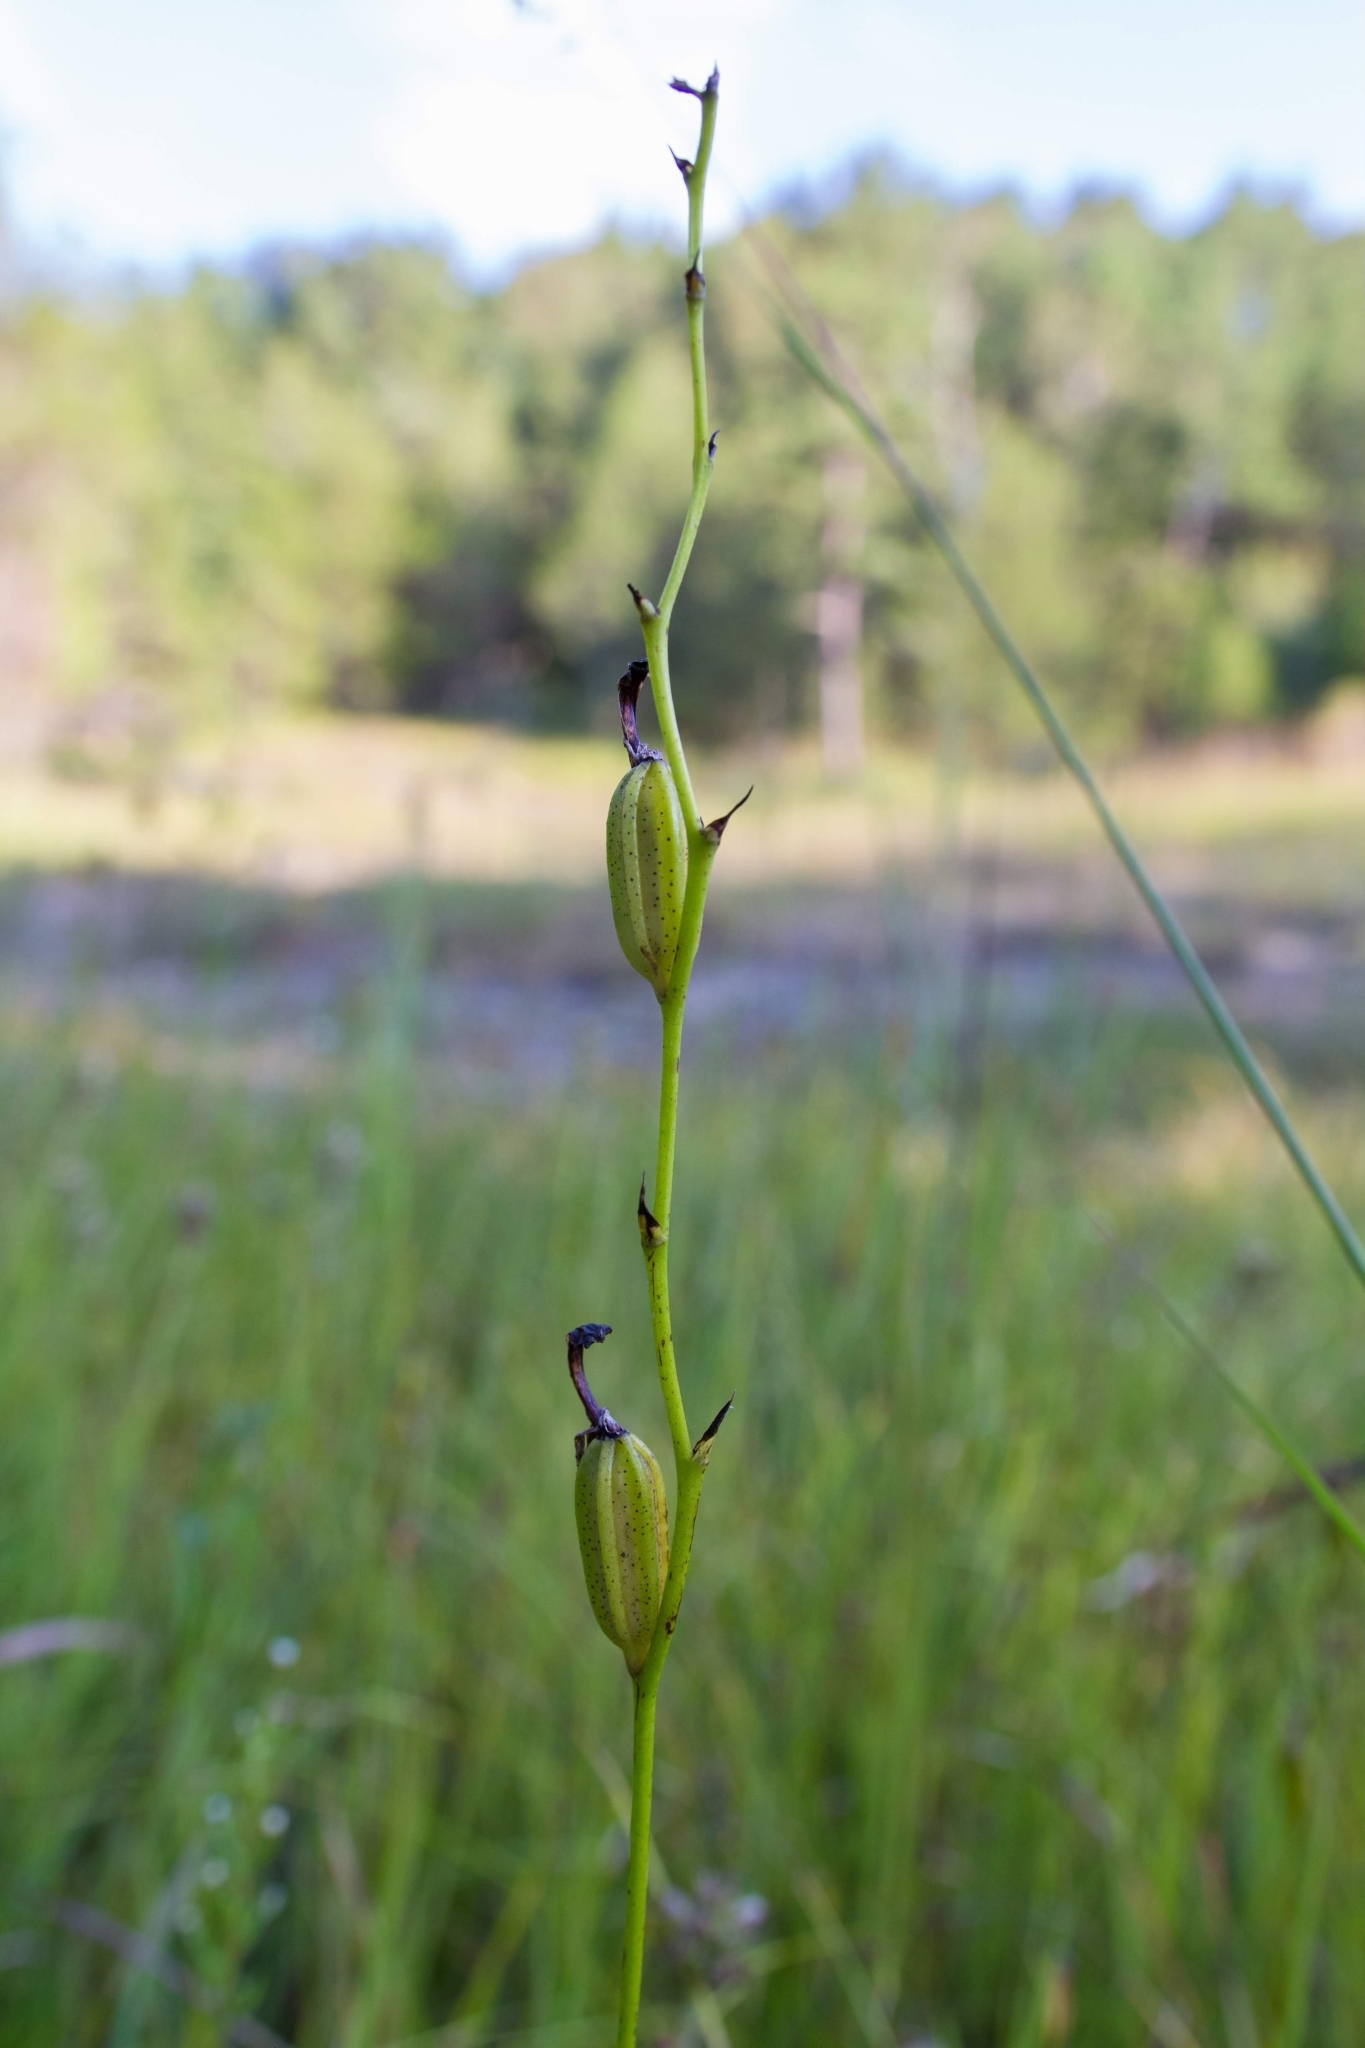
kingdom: Plantae
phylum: Tracheophyta
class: Liliopsida
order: Asparagales
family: Orchidaceae
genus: Calopogon
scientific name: Calopogon tuberosus
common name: Grass-pink
